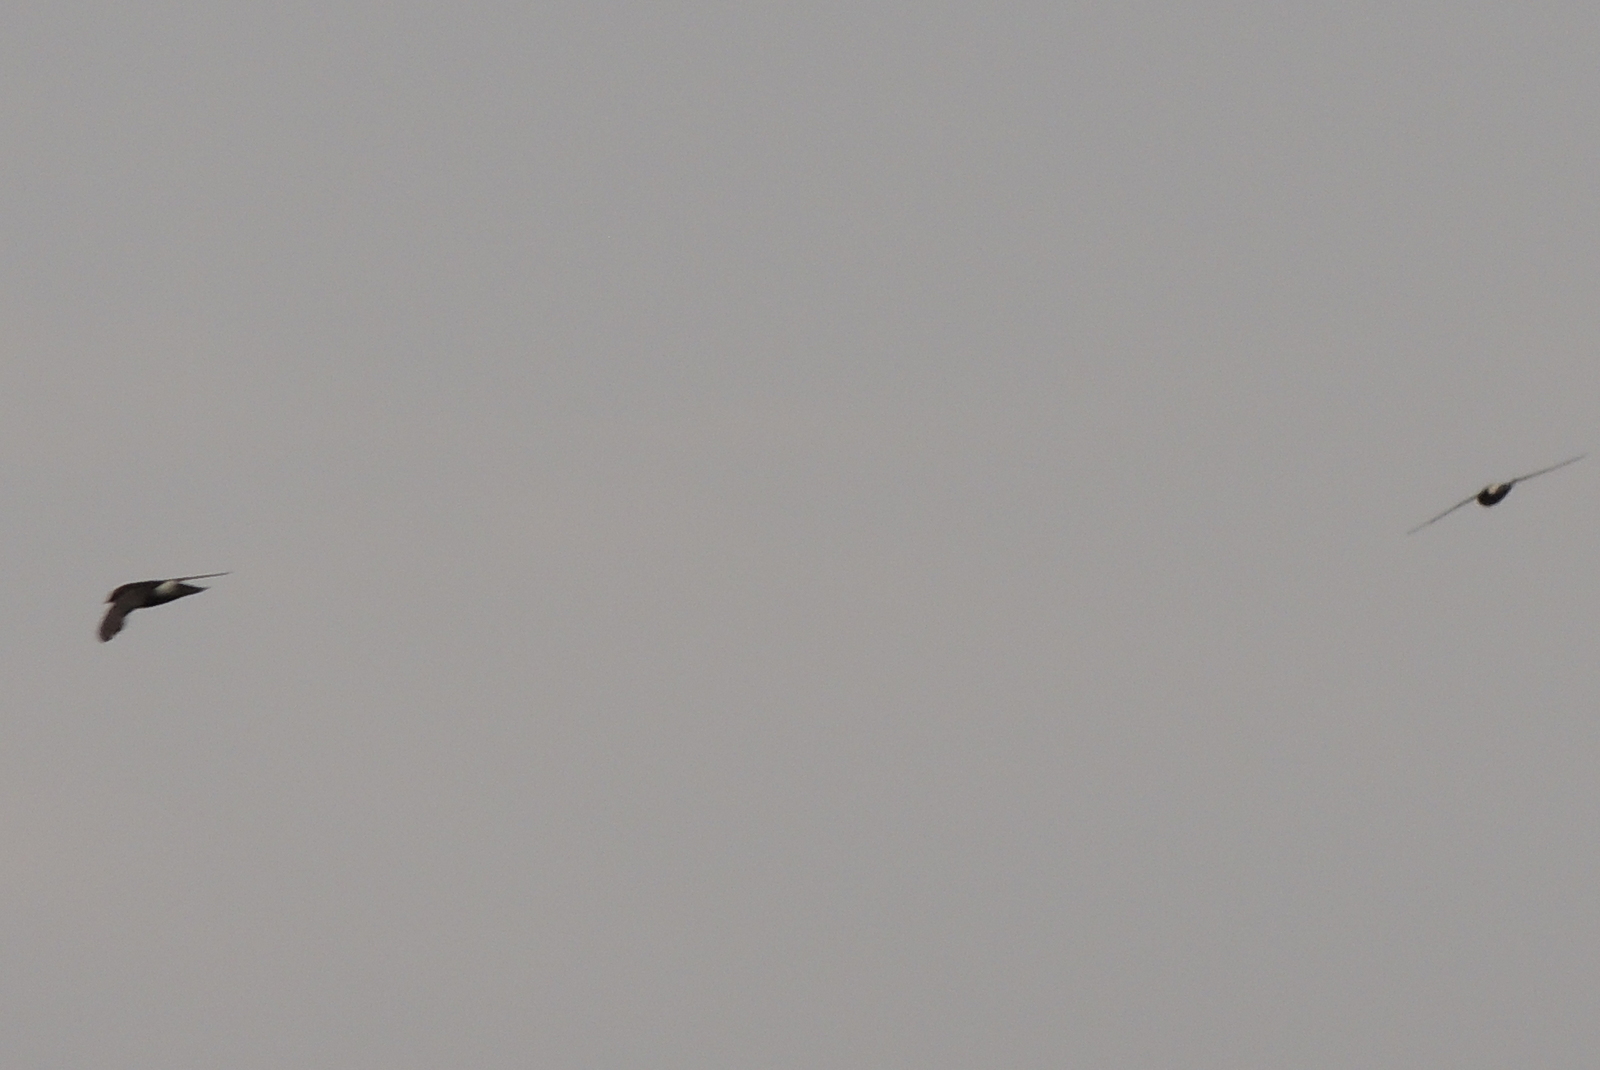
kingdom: Animalia
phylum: Chordata
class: Aves
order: Apodiformes
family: Apodidae
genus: Apus
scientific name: Apus affinis
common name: Little swift
